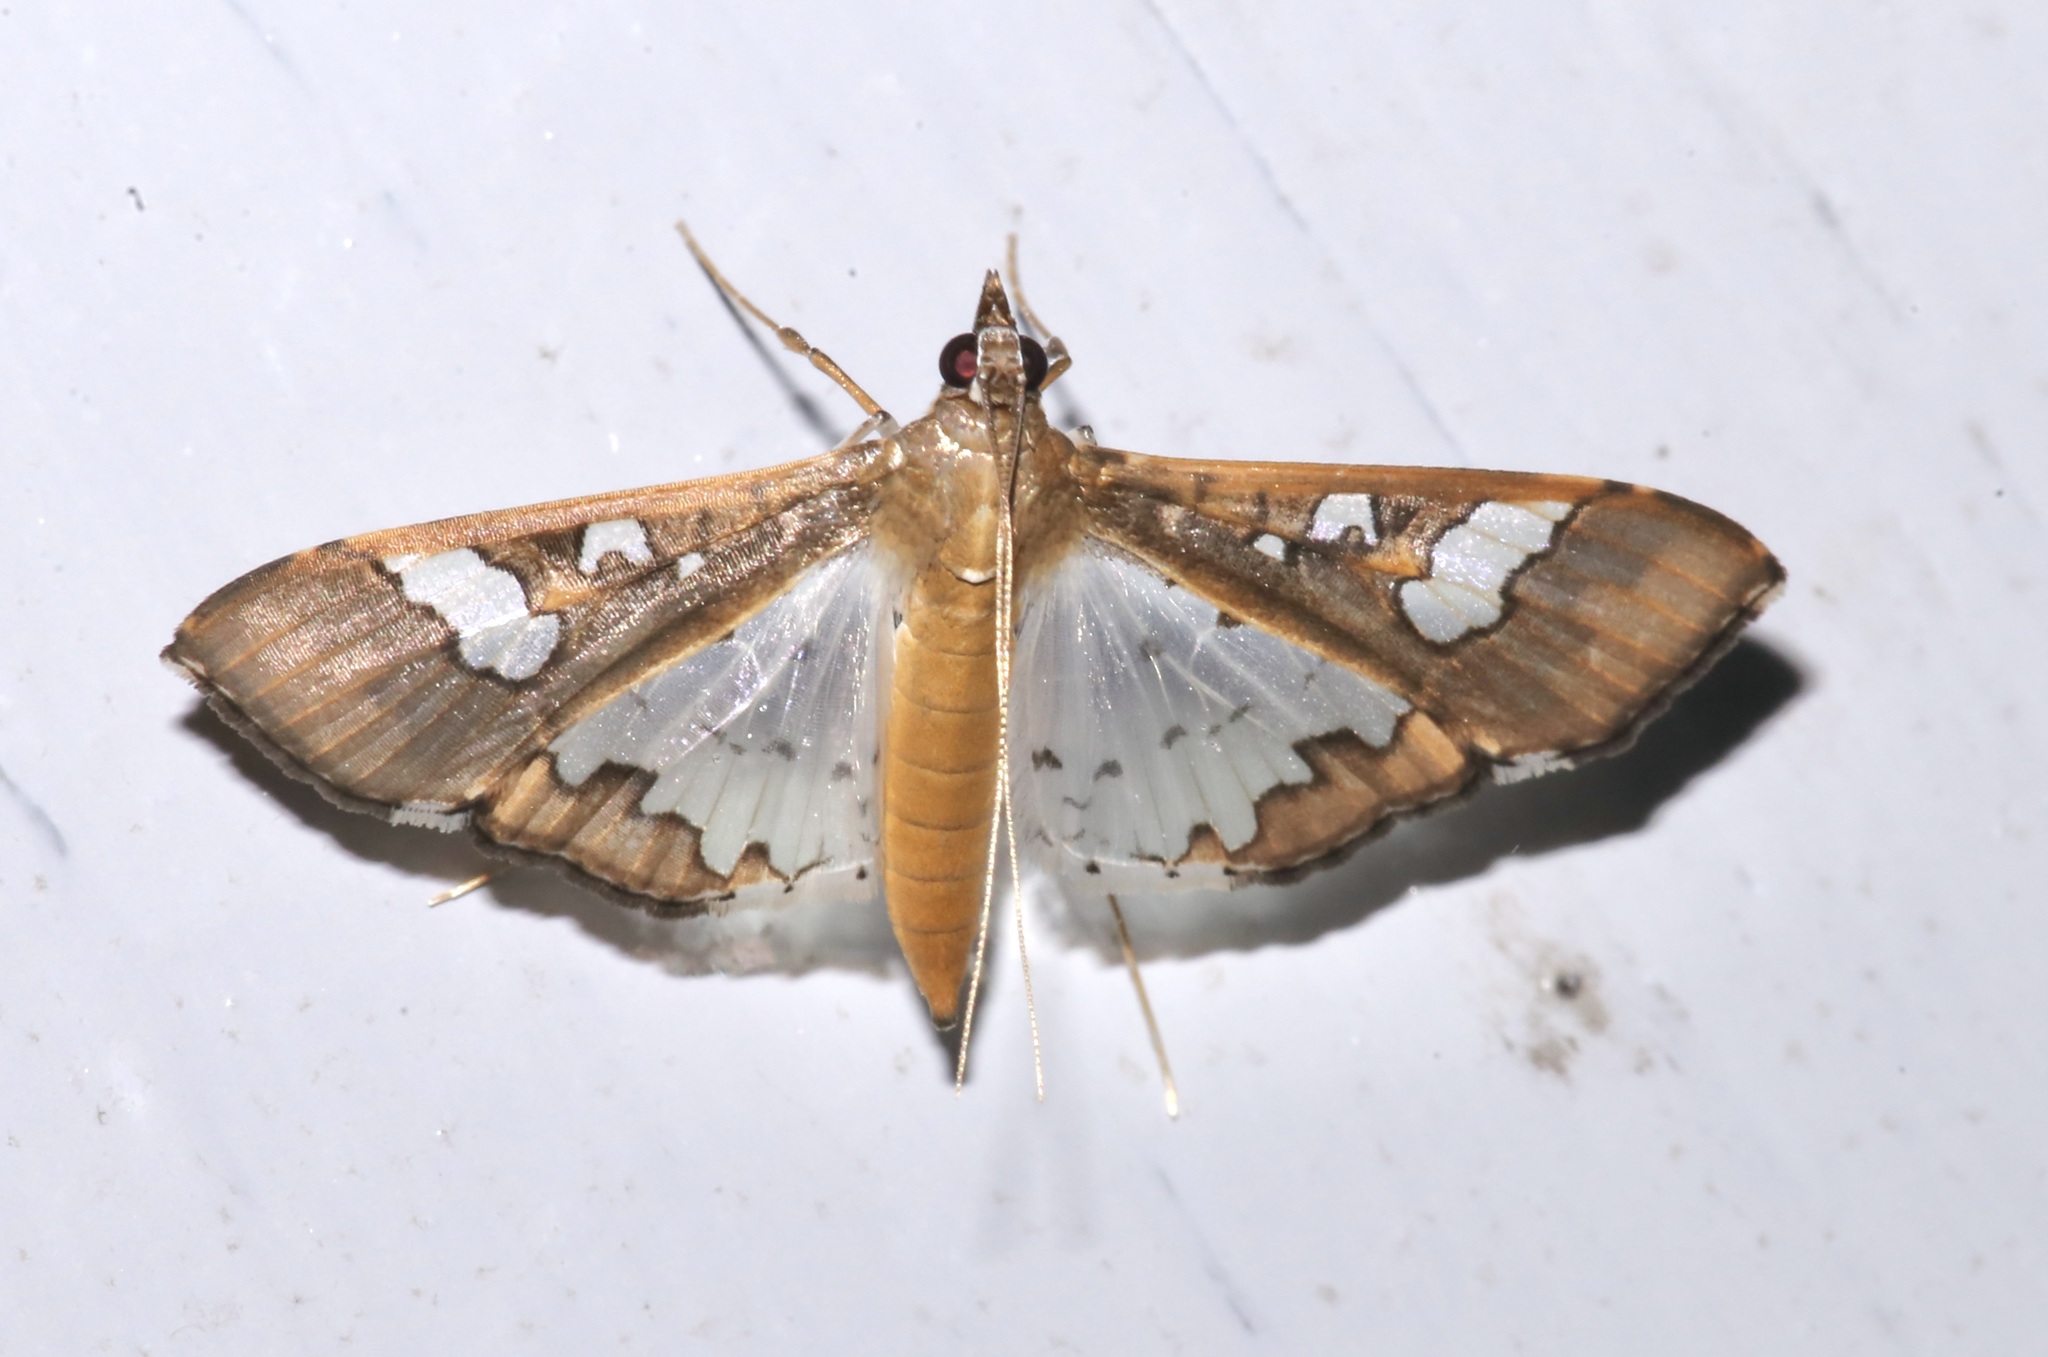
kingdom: Animalia
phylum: Arthropoda
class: Insecta
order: Lepidoptera
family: Crambidae
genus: Maruca
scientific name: Maruca vitrata
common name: Maruca pod borer
